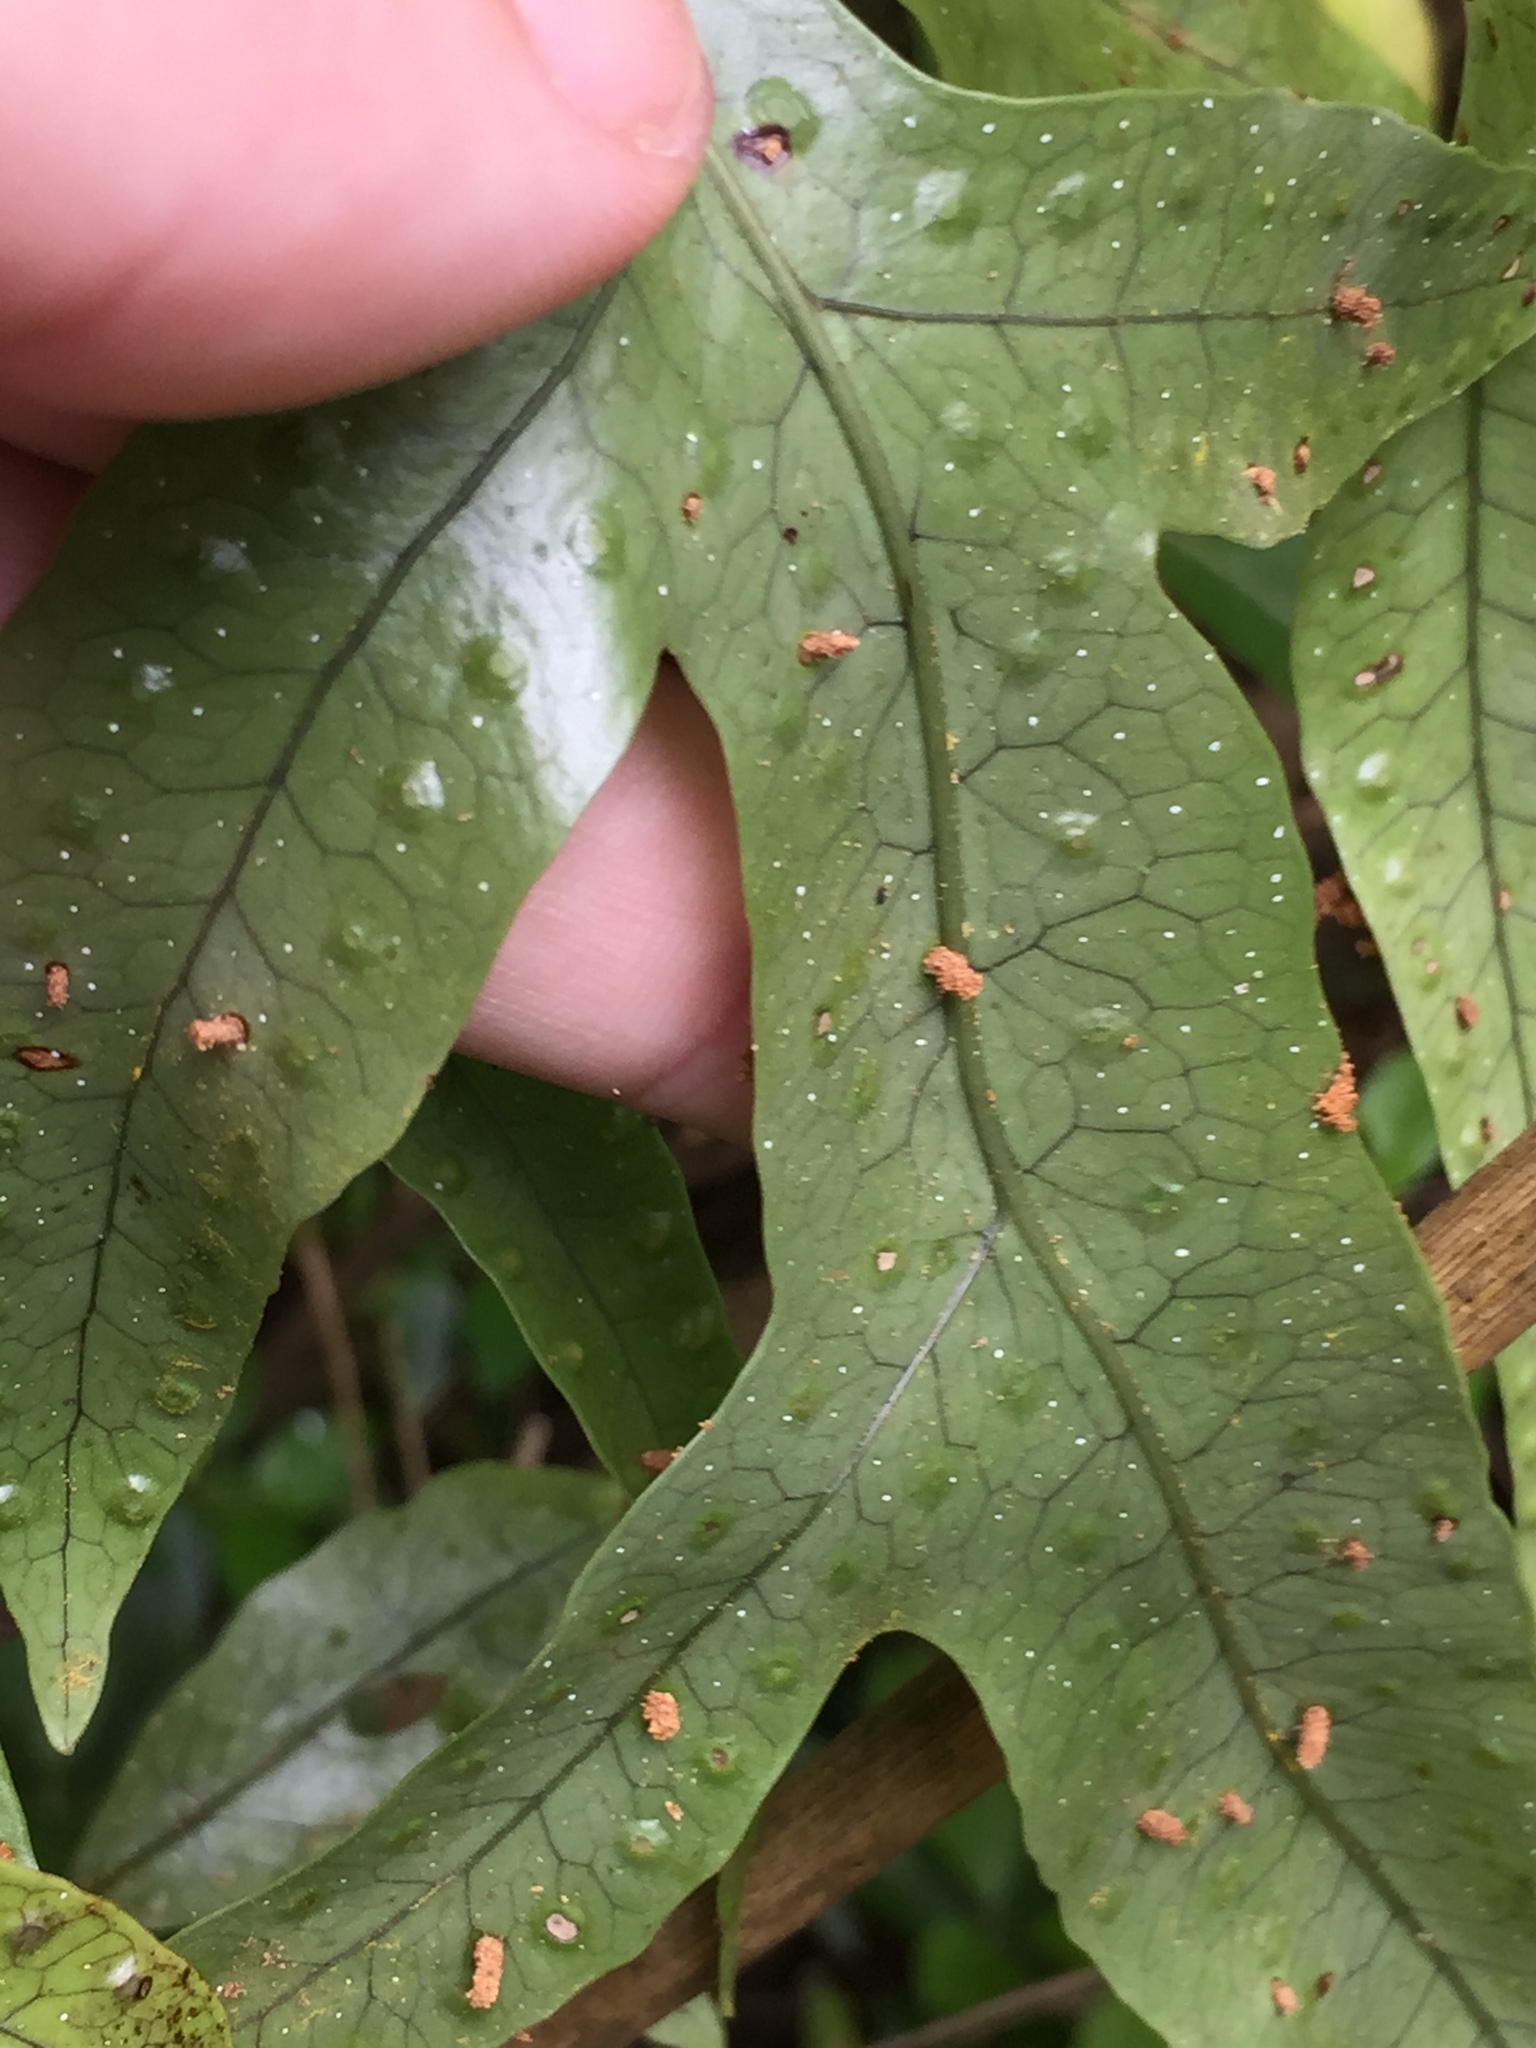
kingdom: Animalia
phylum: Arthropoda
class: Insecta
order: Lepidoptera
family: Stathmopodidae
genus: Thylacosceles
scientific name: Thylacosceles radians
